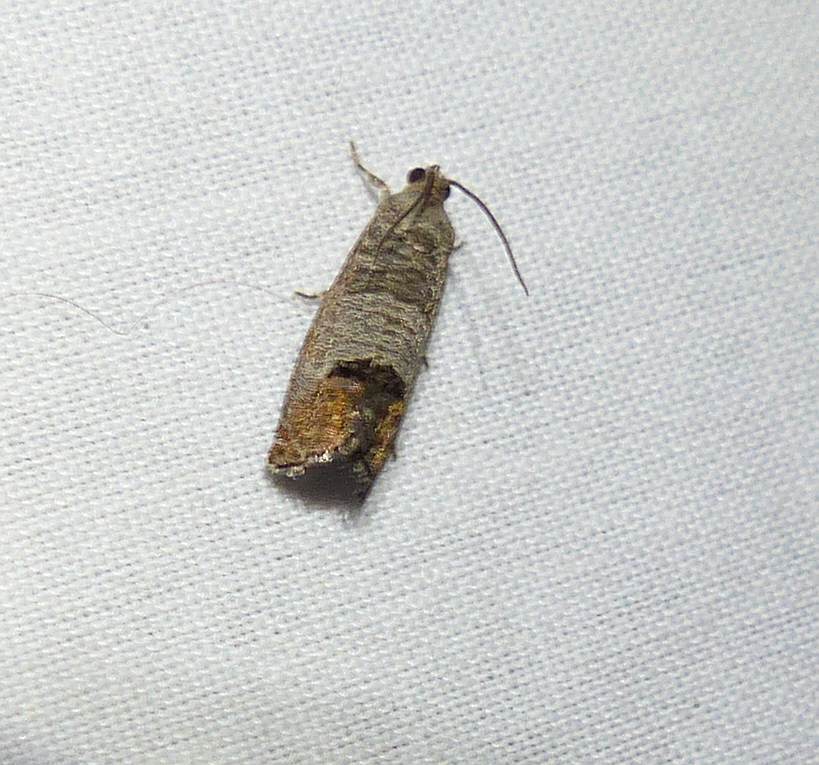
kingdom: Animalia
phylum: Arthropoda
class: Insecta
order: Lepidoptera
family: Tortricidae
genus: Cydia
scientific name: Cydia pomonella
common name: Codling moth
